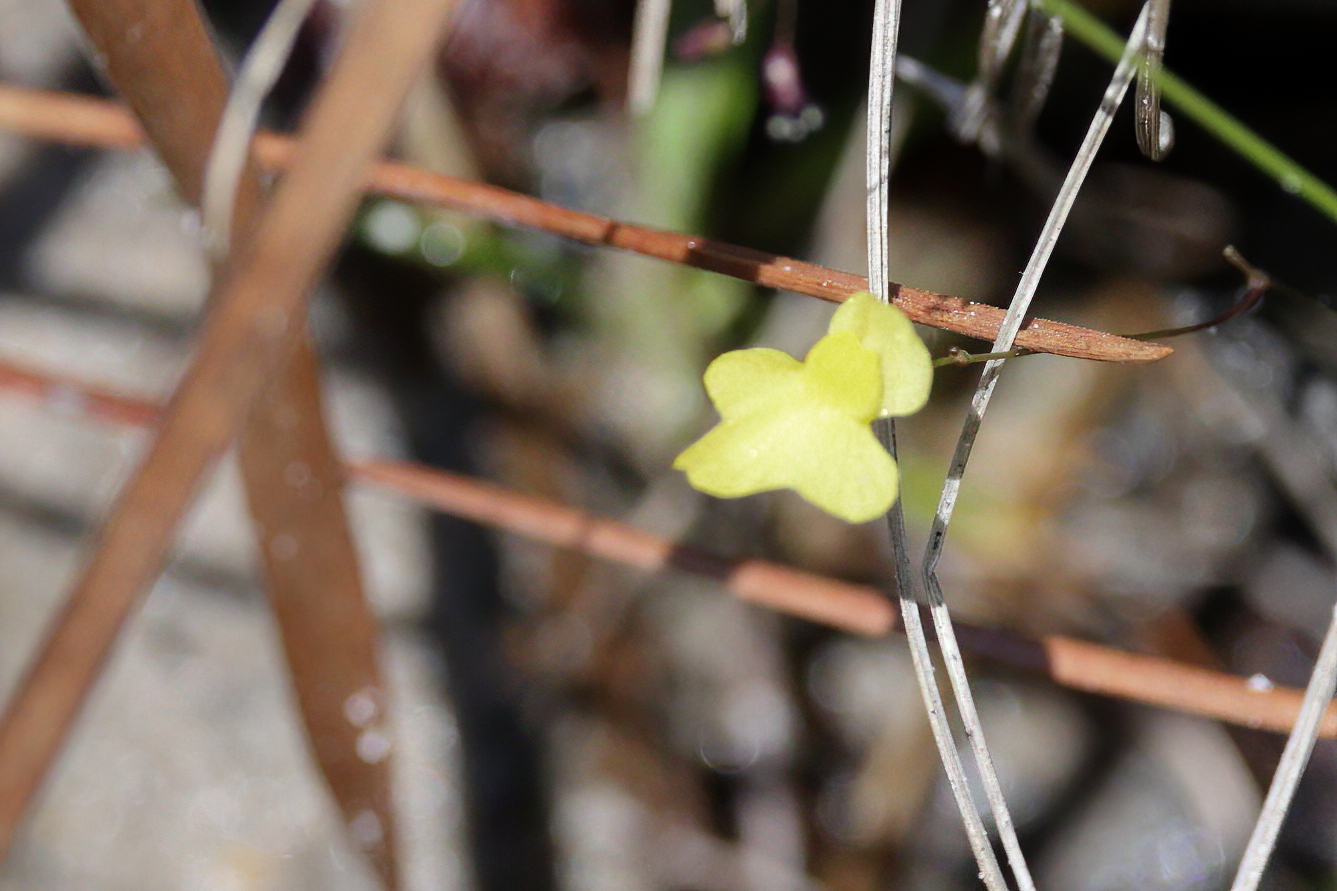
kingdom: Plantae
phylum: Tracheophyta
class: Magnoliopsida
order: Lamiales
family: Lentibulariaceae
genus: Utricularia
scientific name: Utricularia subulata
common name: Tiny bladderwort
